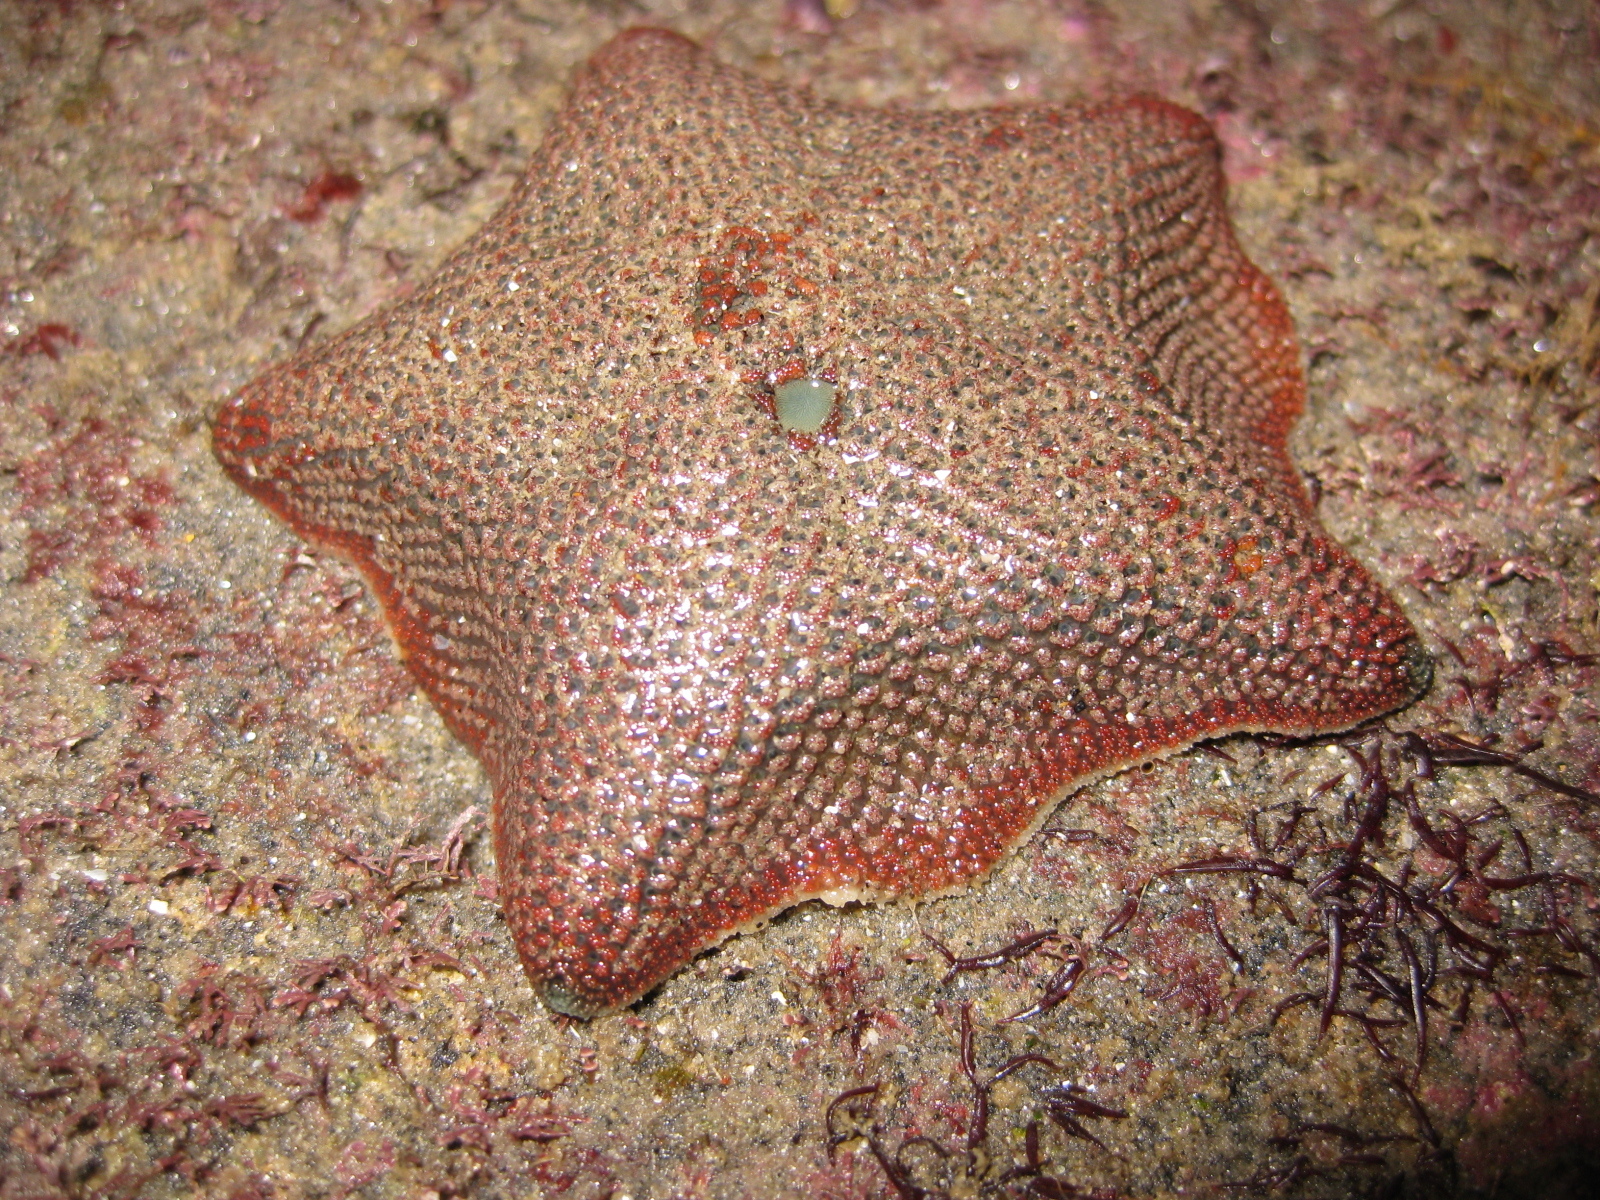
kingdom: Animalia
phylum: Echinodermata
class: Asteroidea
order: Valvatida
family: Asterinidae
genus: Patiriella
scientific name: Patiriella regularis
